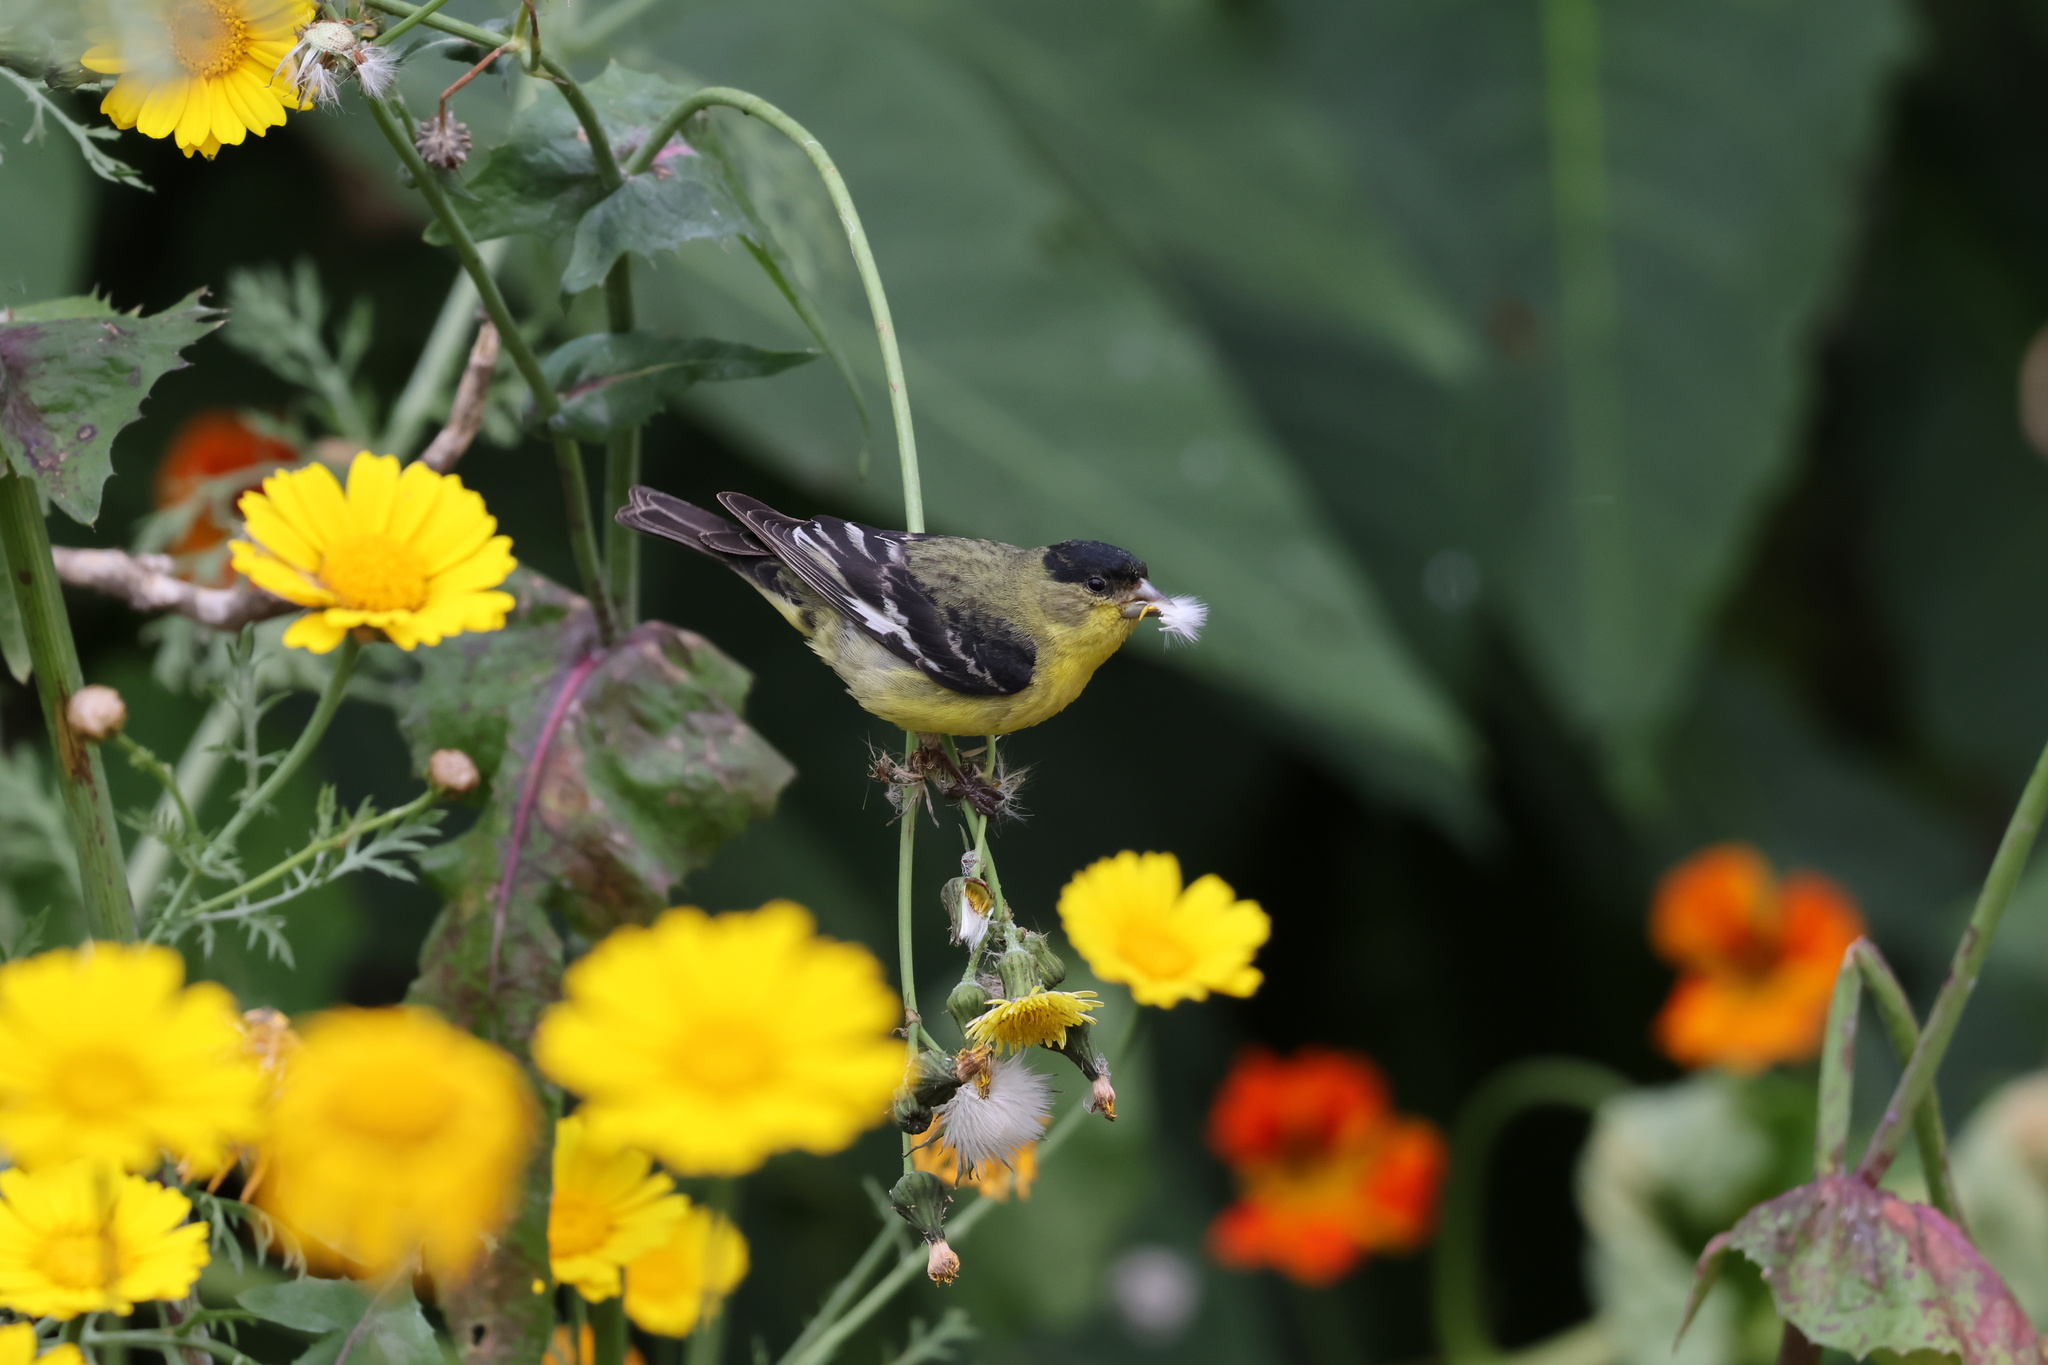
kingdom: Animalia
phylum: Chordata
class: Aves
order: Passeriformes
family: Fringillidae
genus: Spinus
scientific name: Spinus psaltria
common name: Lesser goldfinch
